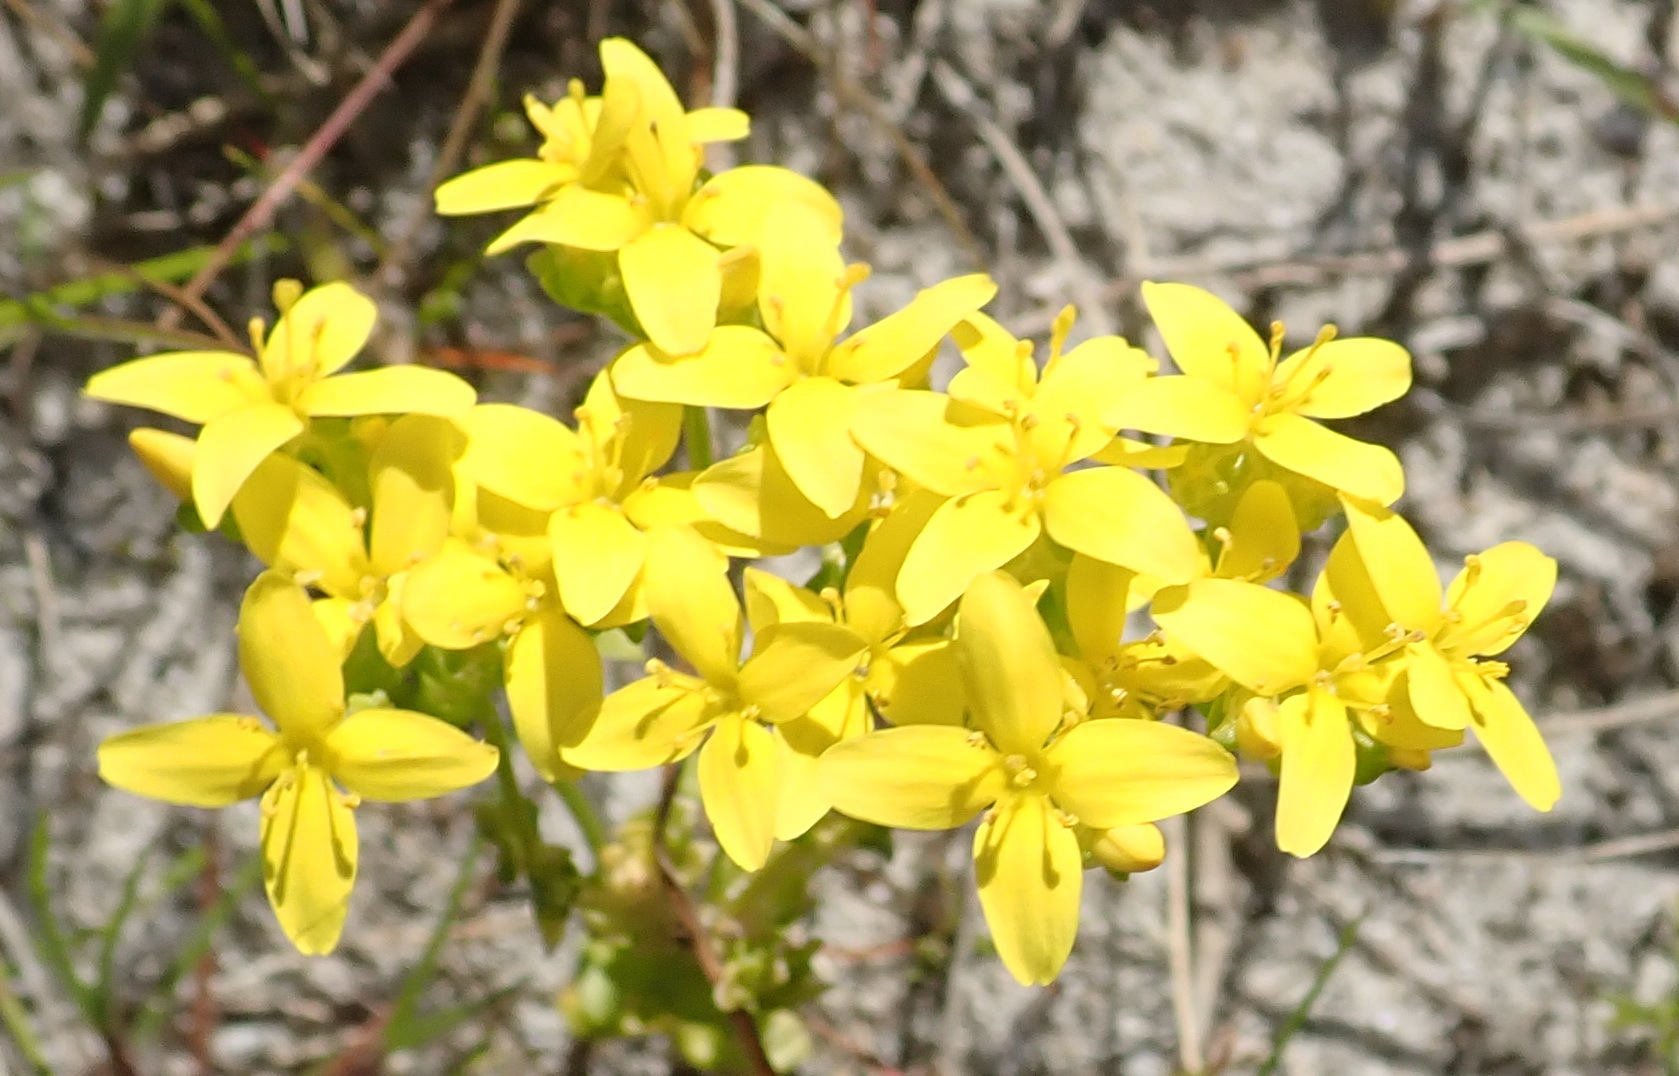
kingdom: Plantae
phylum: Tracheophyta
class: Magnoliopsida
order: Gentianales
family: Gentianaceae
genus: Sebaea
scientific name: Sebaea aurea
